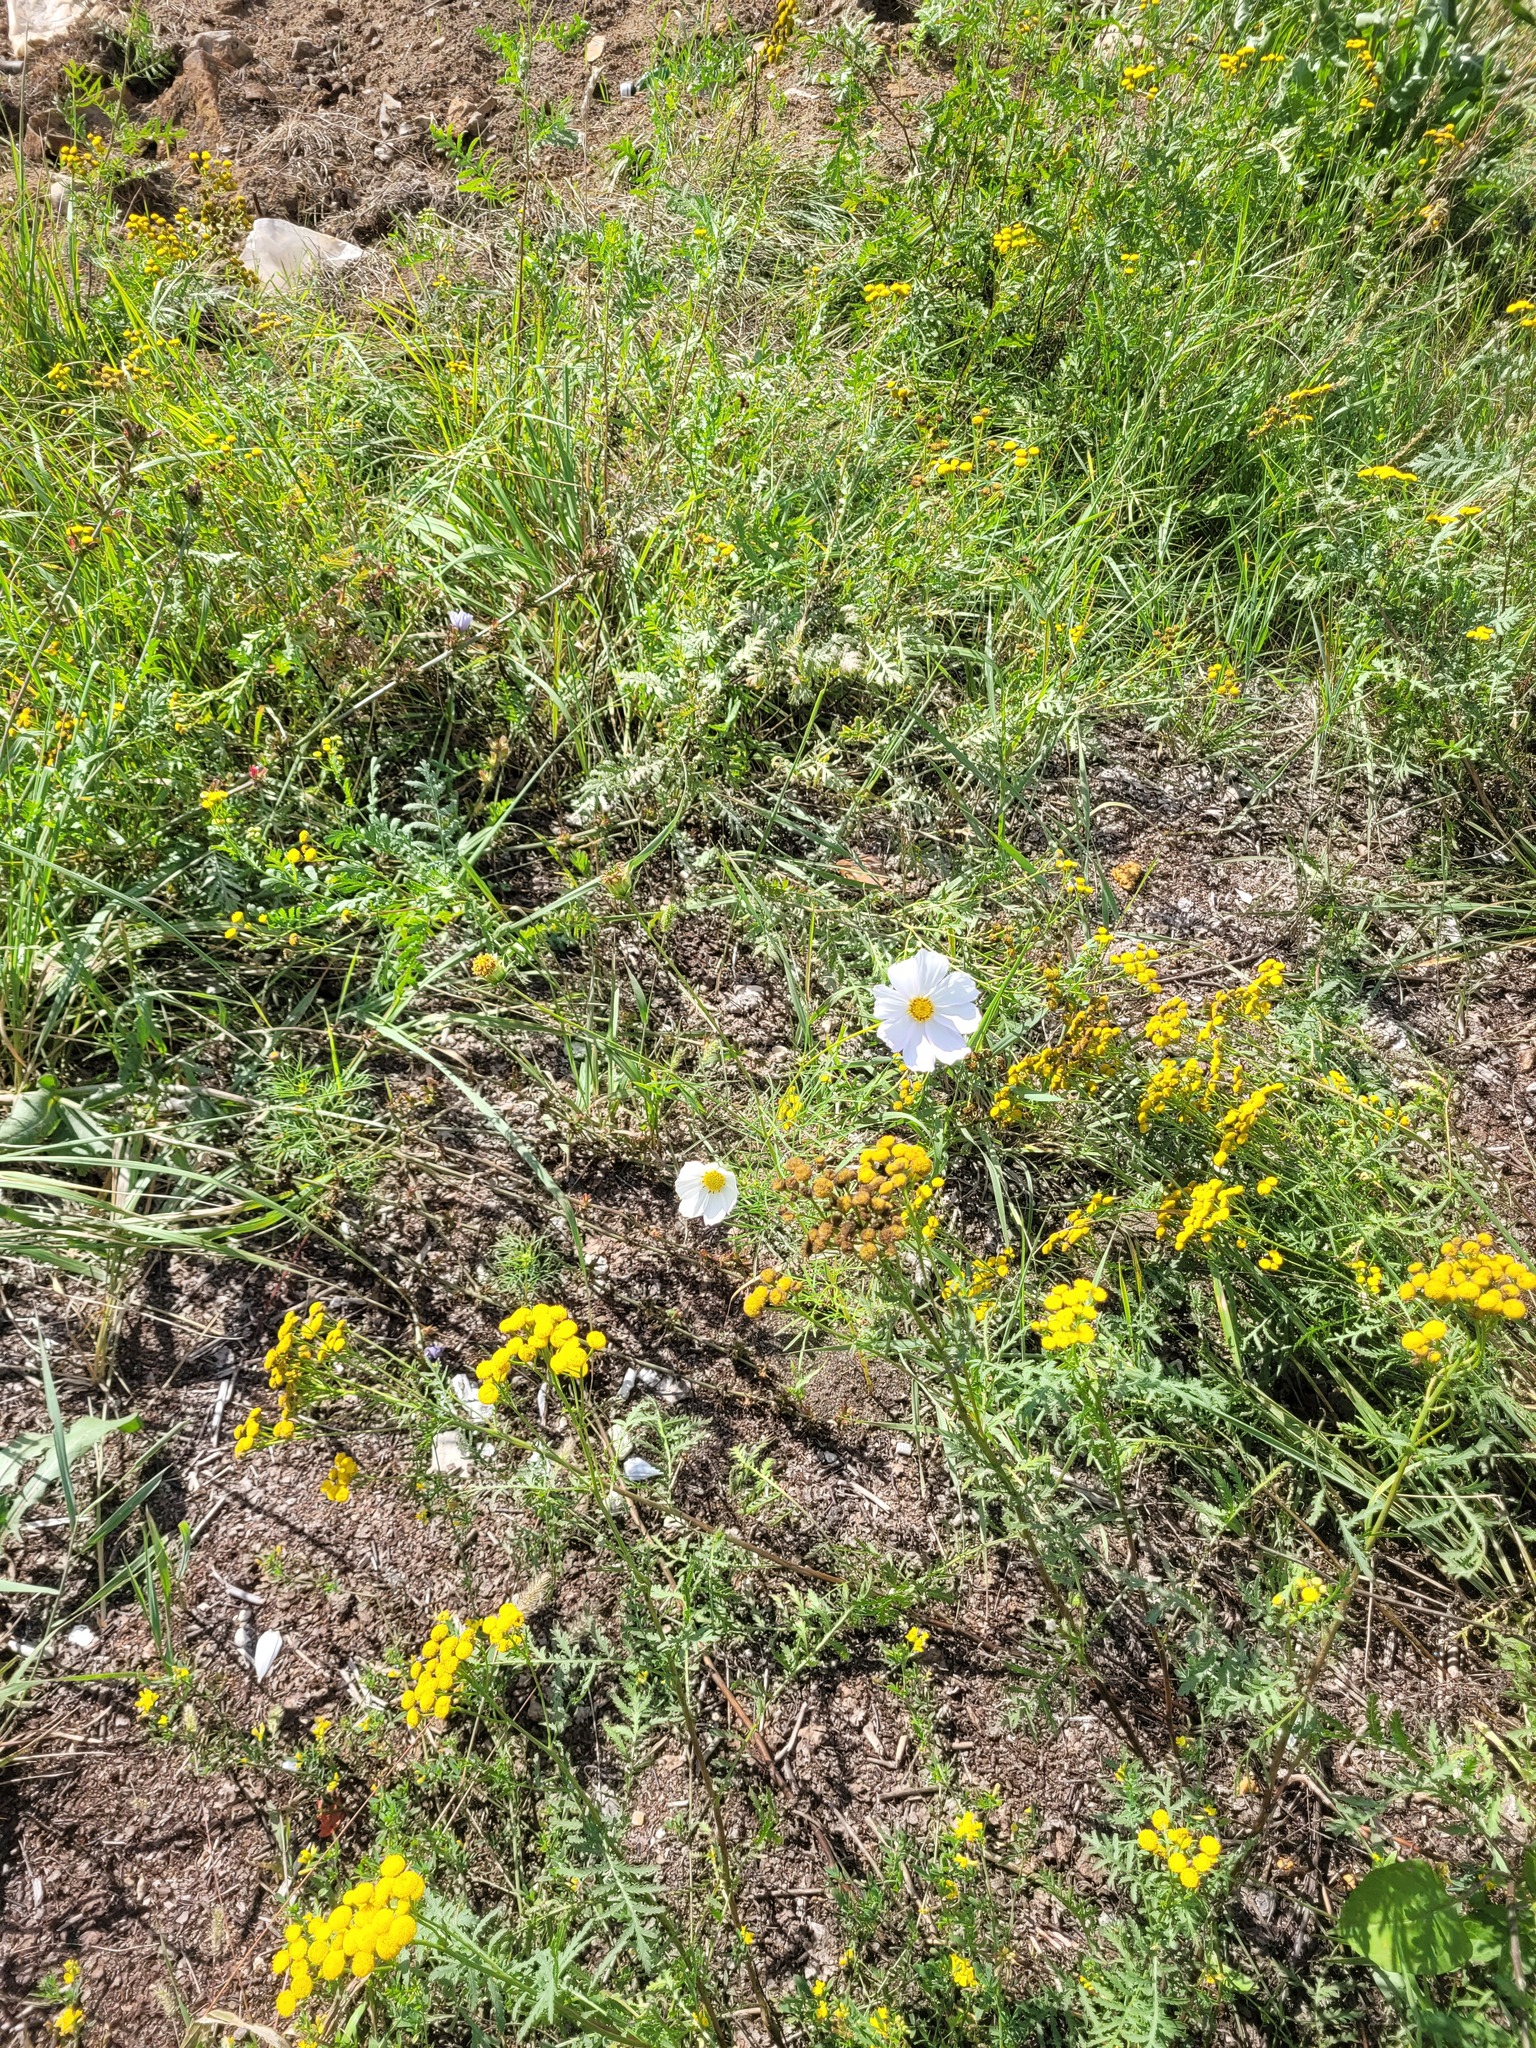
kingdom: Plantae
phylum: Tracheophyta
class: Magnoliopsida
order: Asterales
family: Asteraceae
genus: Cosmos
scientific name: Cosmos bipinnatus
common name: Garden cosmos
